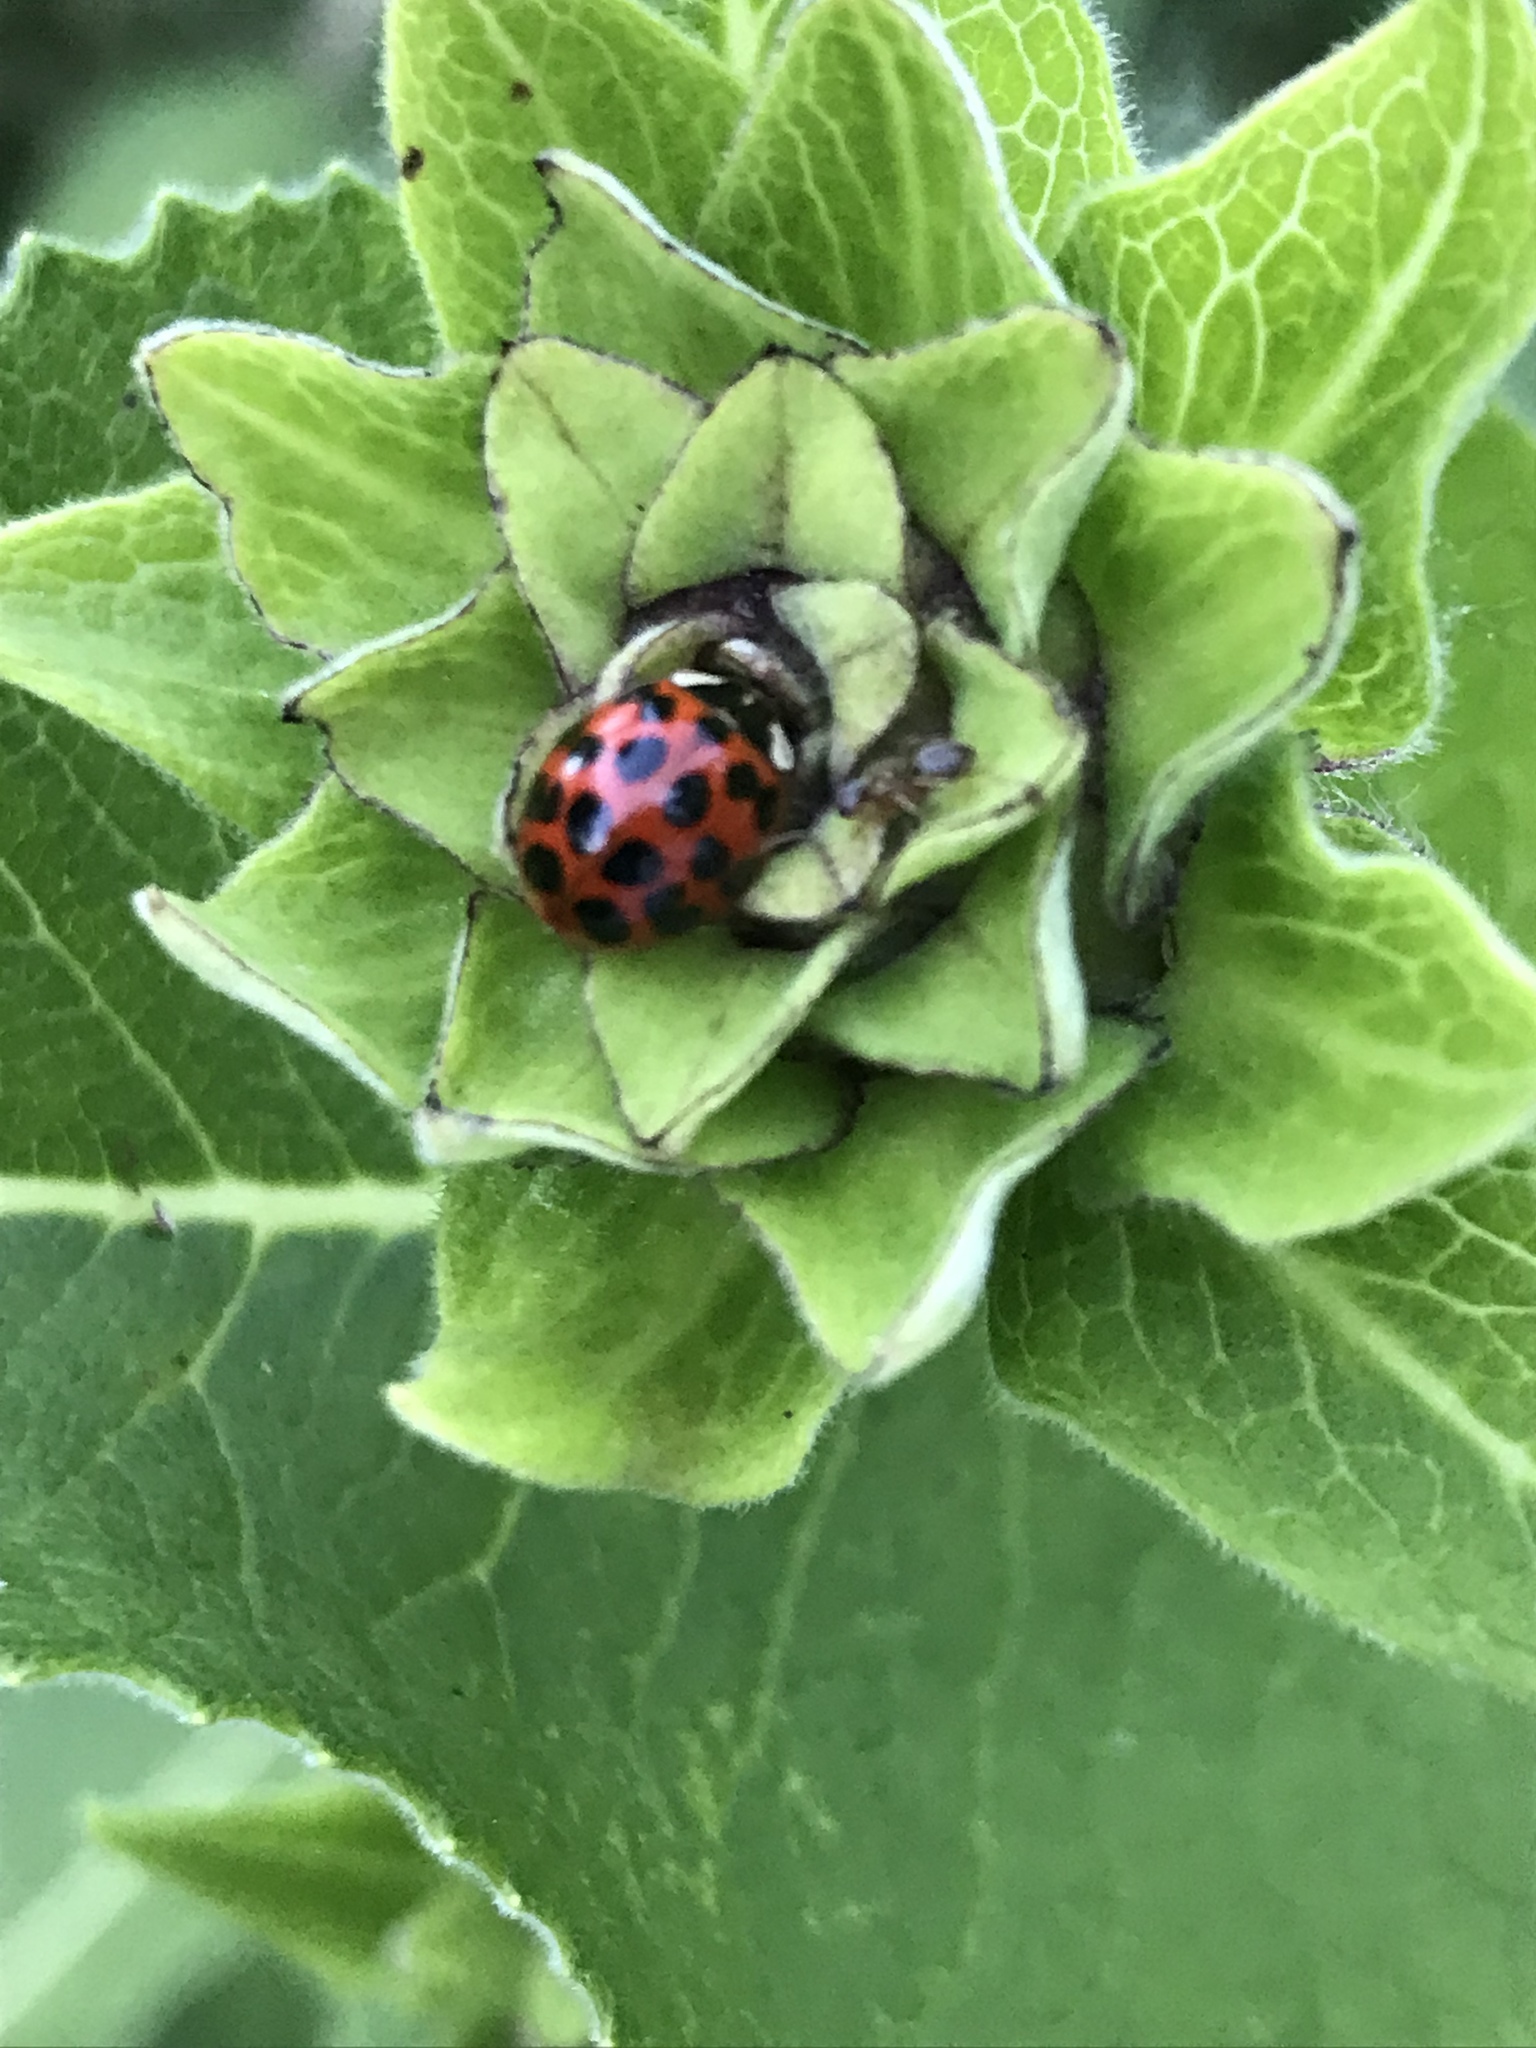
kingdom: Animalia
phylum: Arthropoda
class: Insecta
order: Coleoptera
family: Coccinellidae
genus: Harmonia
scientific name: Harmonia axyridis
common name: Harlequin ladybird
